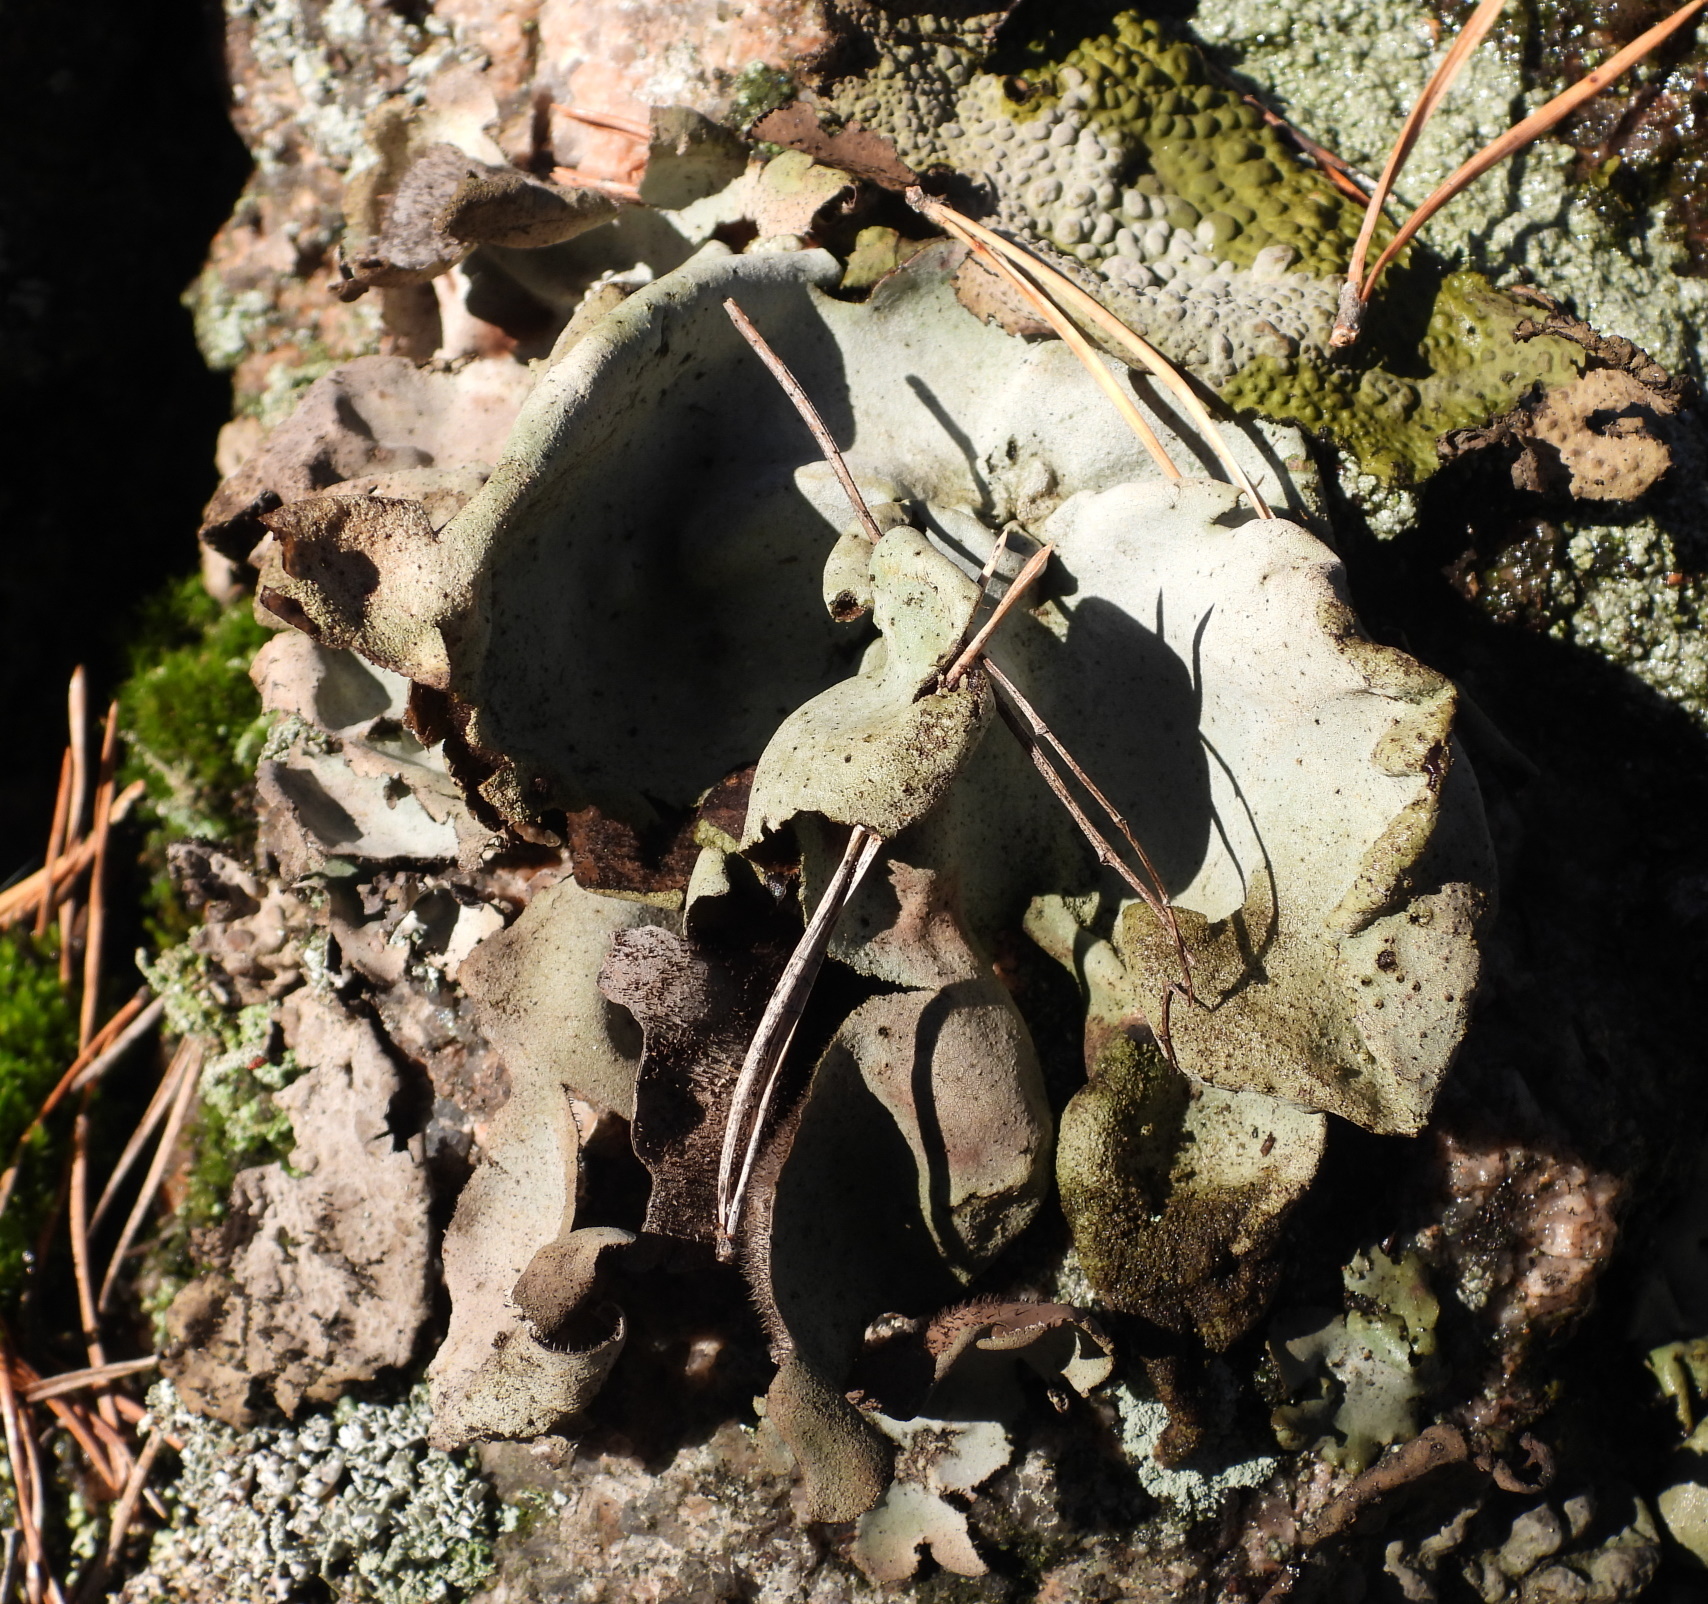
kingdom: Fungi
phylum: Ascomycota
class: Lecanoromycetes
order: Umbilicariales
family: Umbilicariaceae
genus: Umbilicaria
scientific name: Umbilicaria hirsuta
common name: Granulating rocktripe lichen
